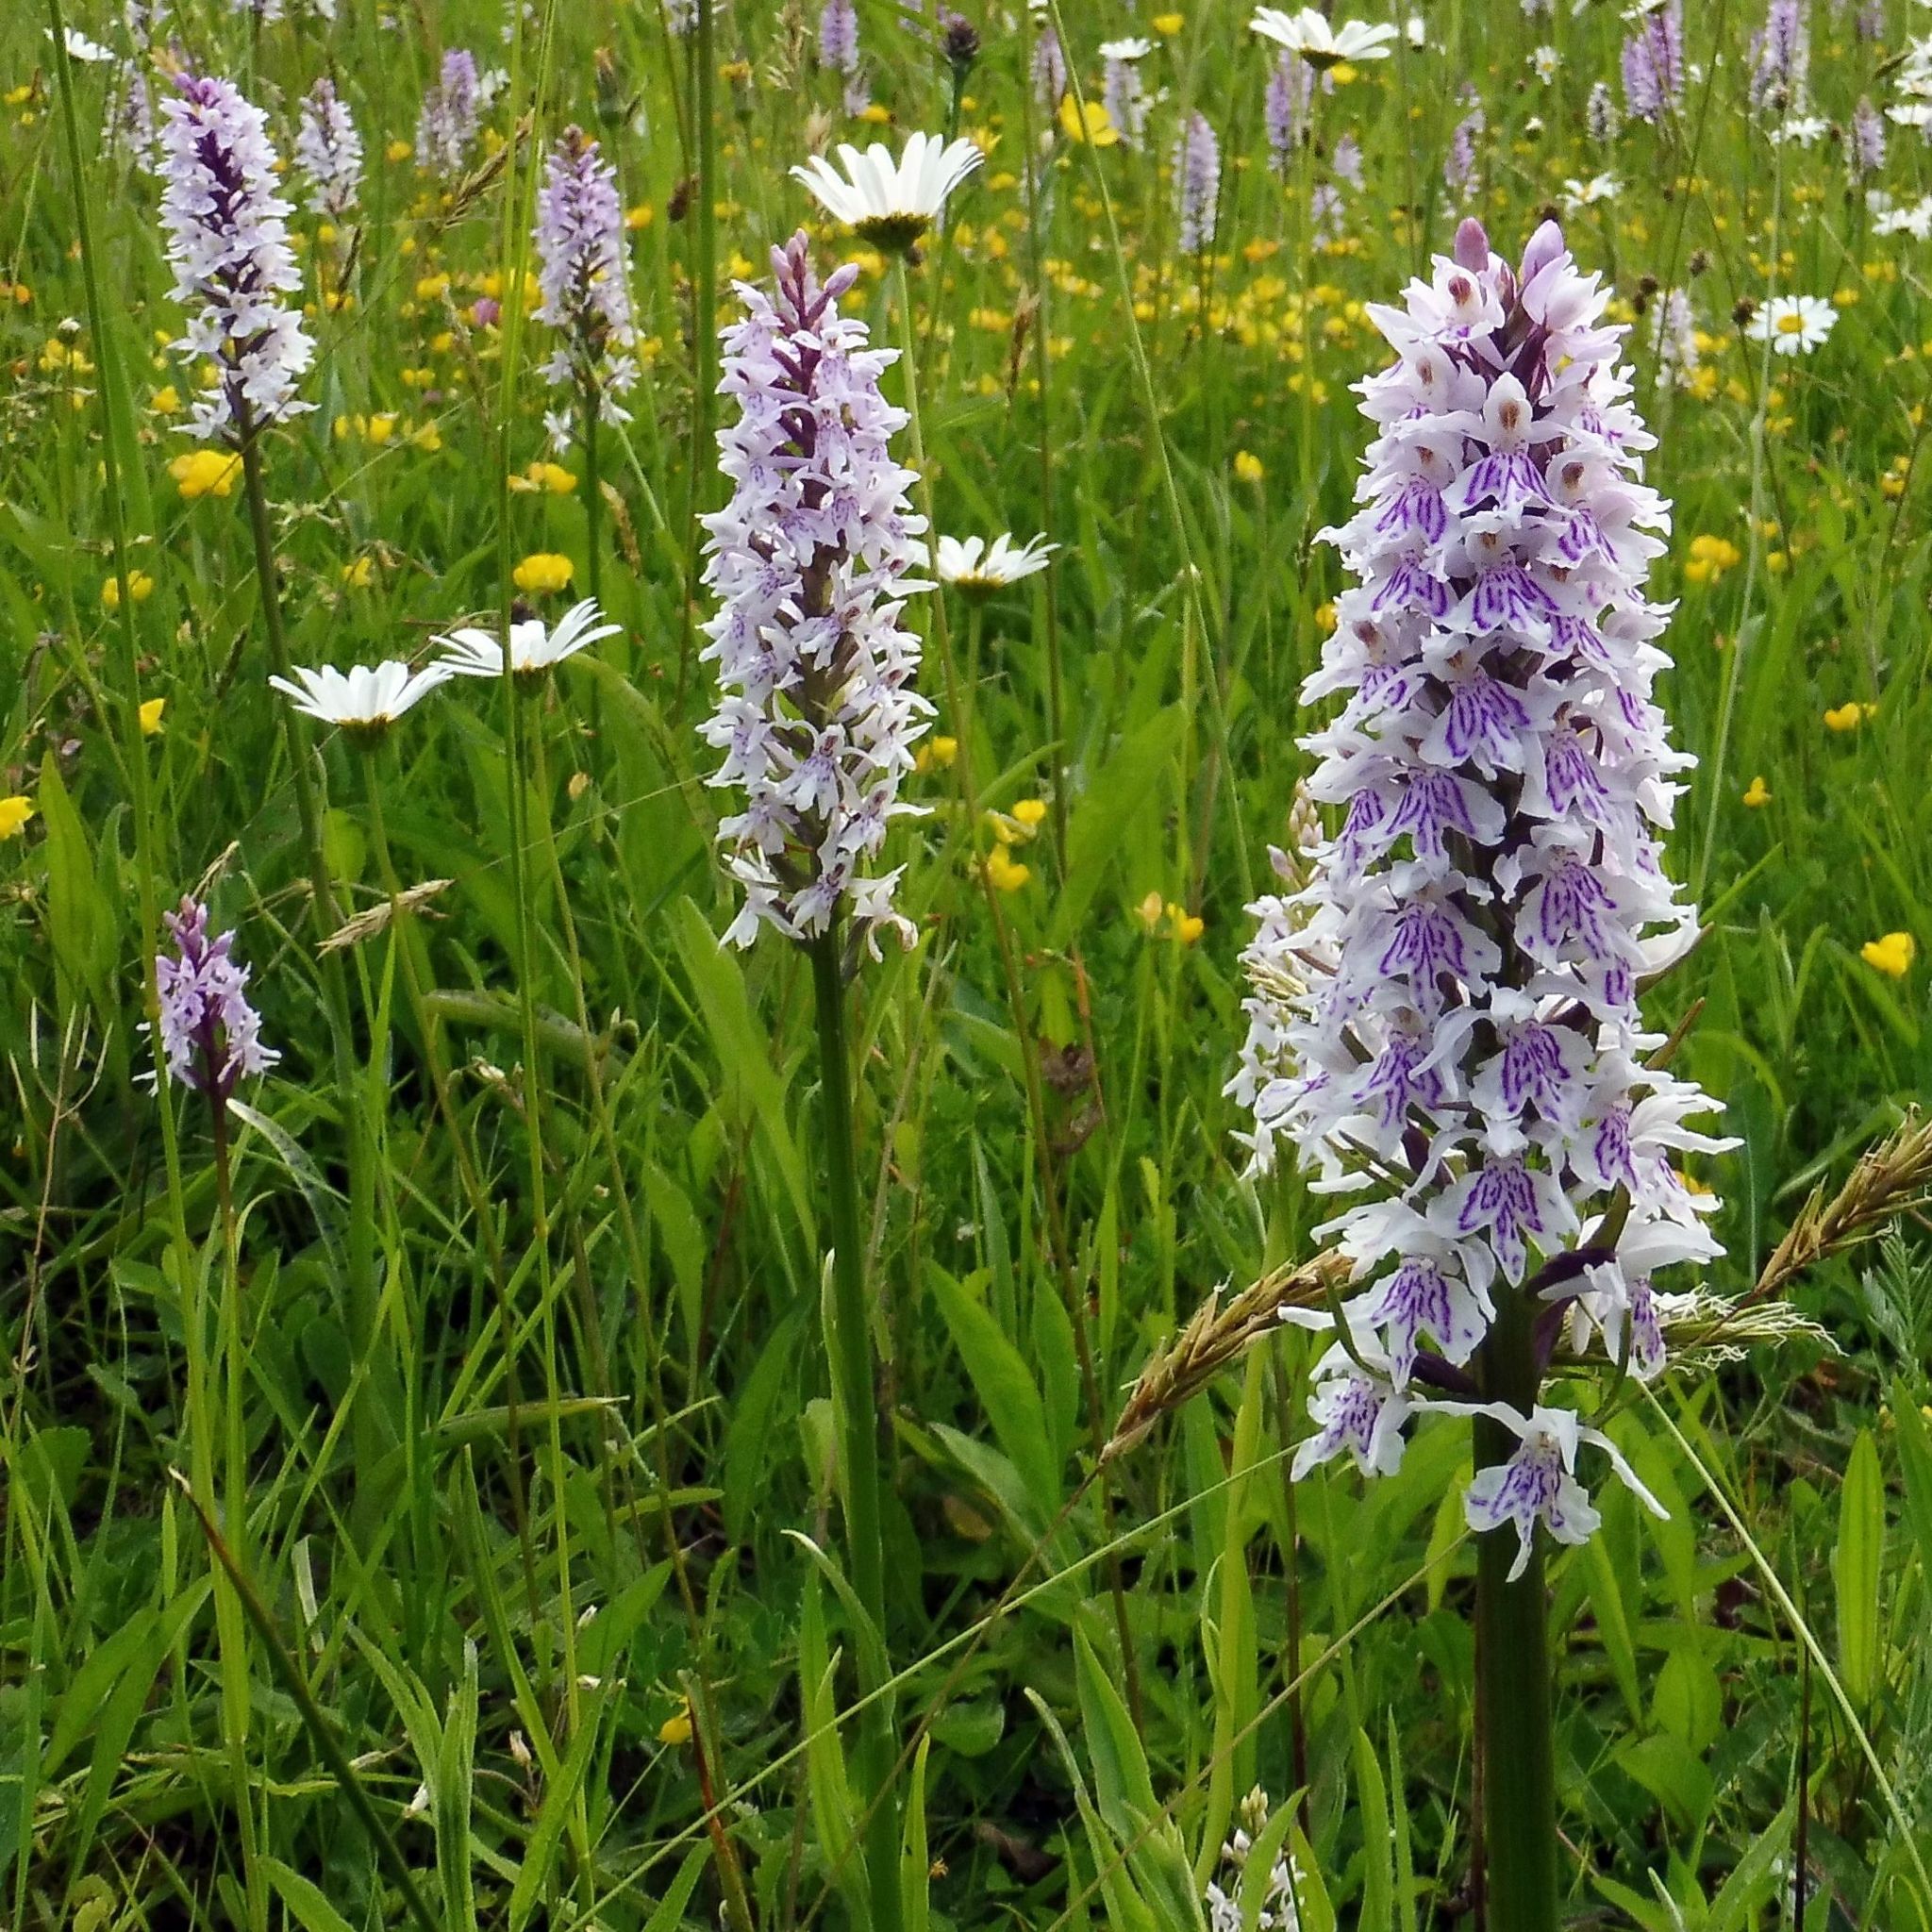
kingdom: Plantae
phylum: Tracheophyta
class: Liliopsida
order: Asparagales
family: Orchidaceae
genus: Dactylorhiza
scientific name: Dactylorhiza maculata
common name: Heath spotted-orchid
